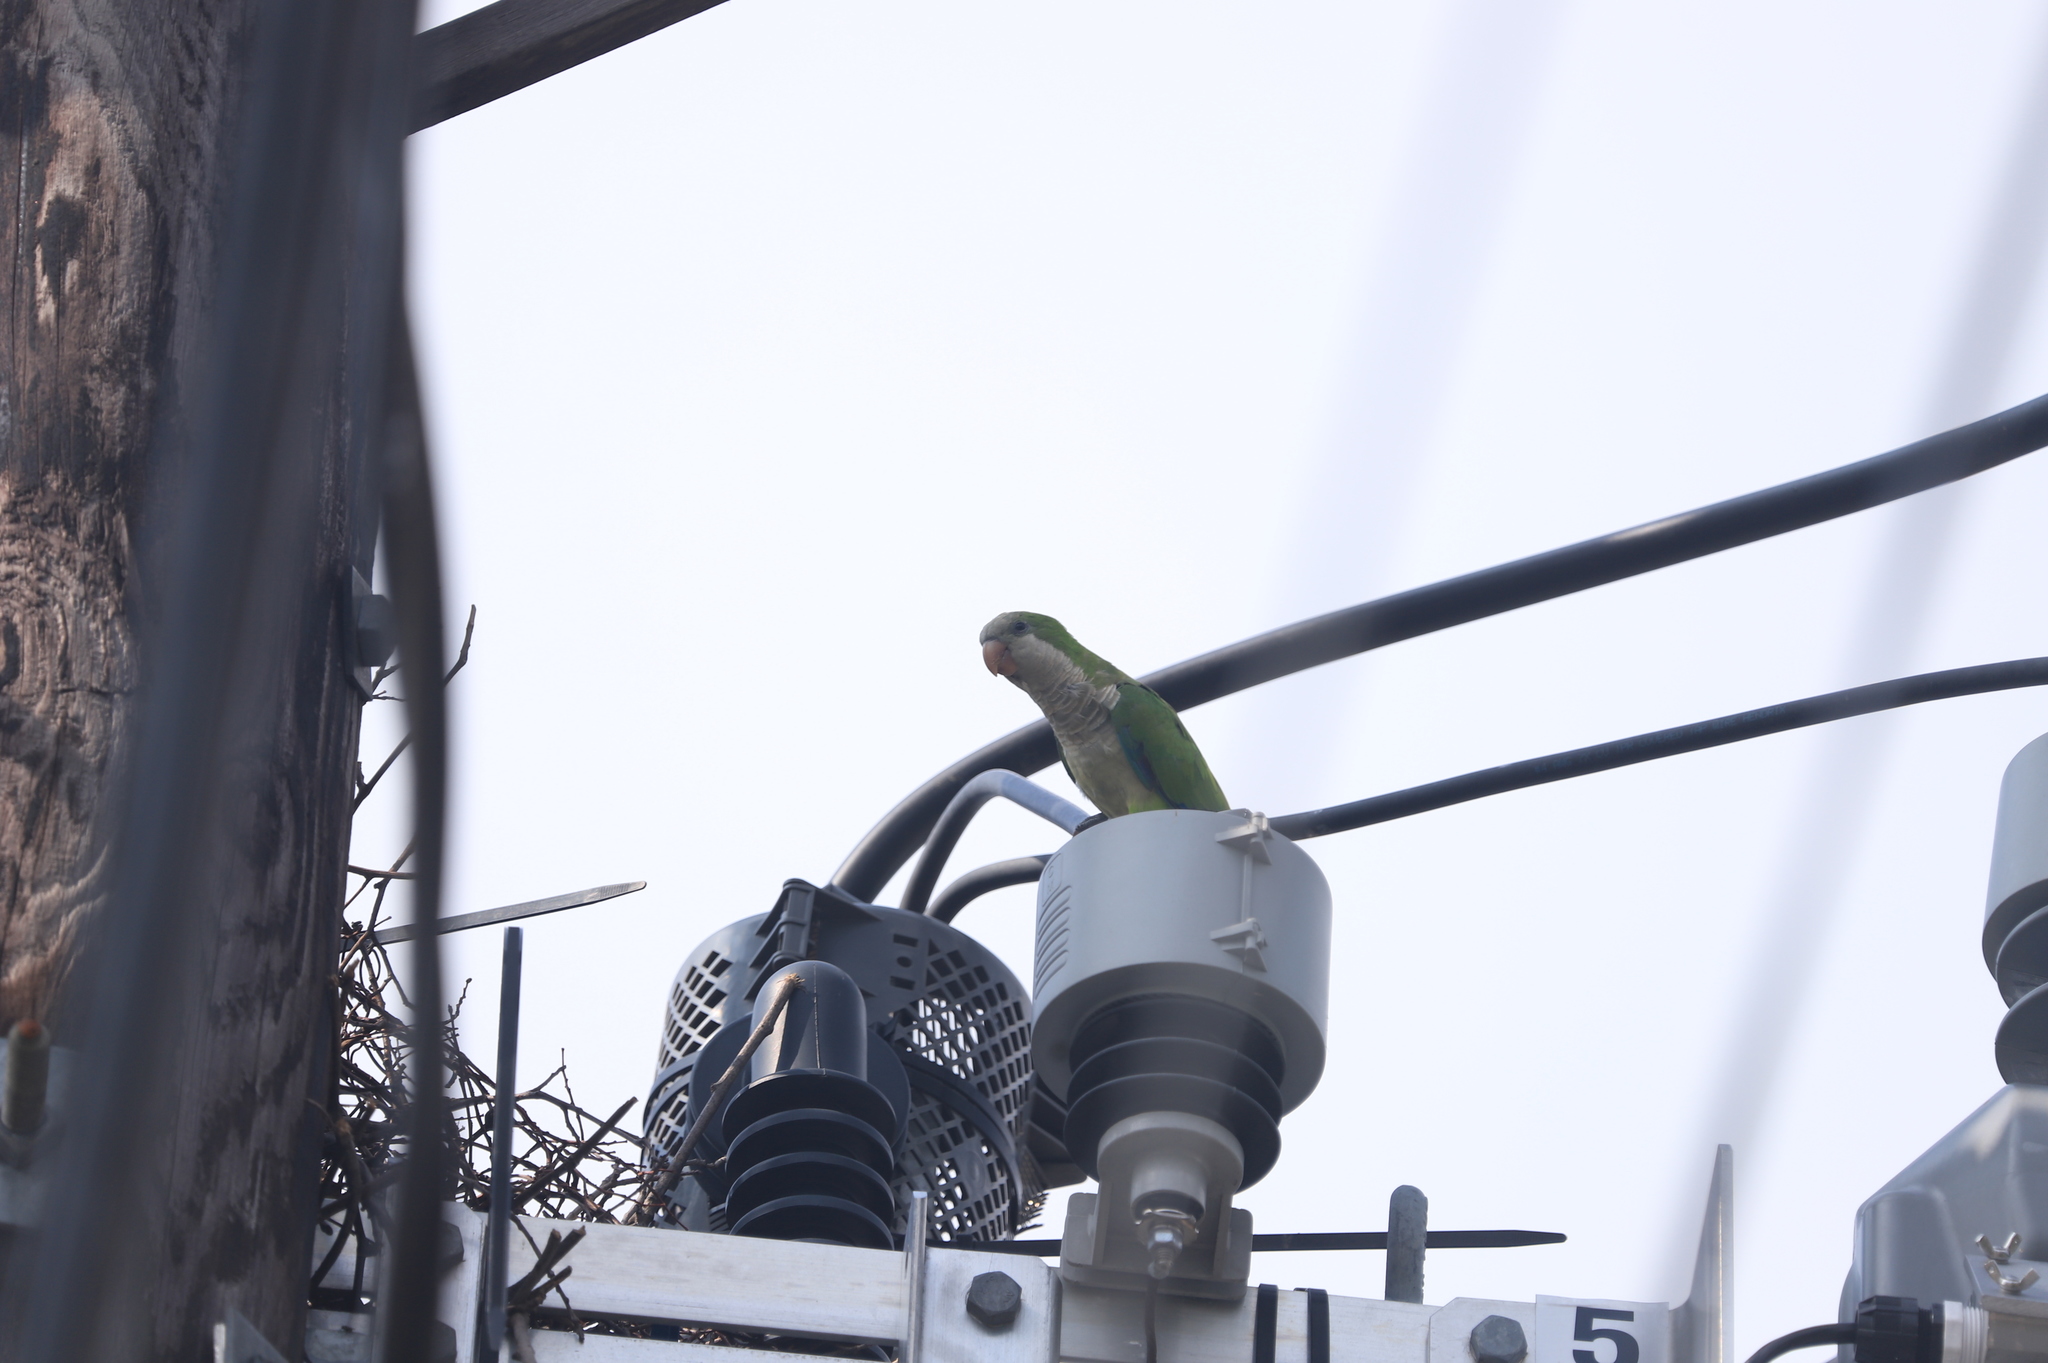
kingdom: Animalia
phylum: Chordata
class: Aves
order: Psittaciformes
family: Psittacidae
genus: Myiopsitta
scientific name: Myiopsitta monachus
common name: Monk parakeet
